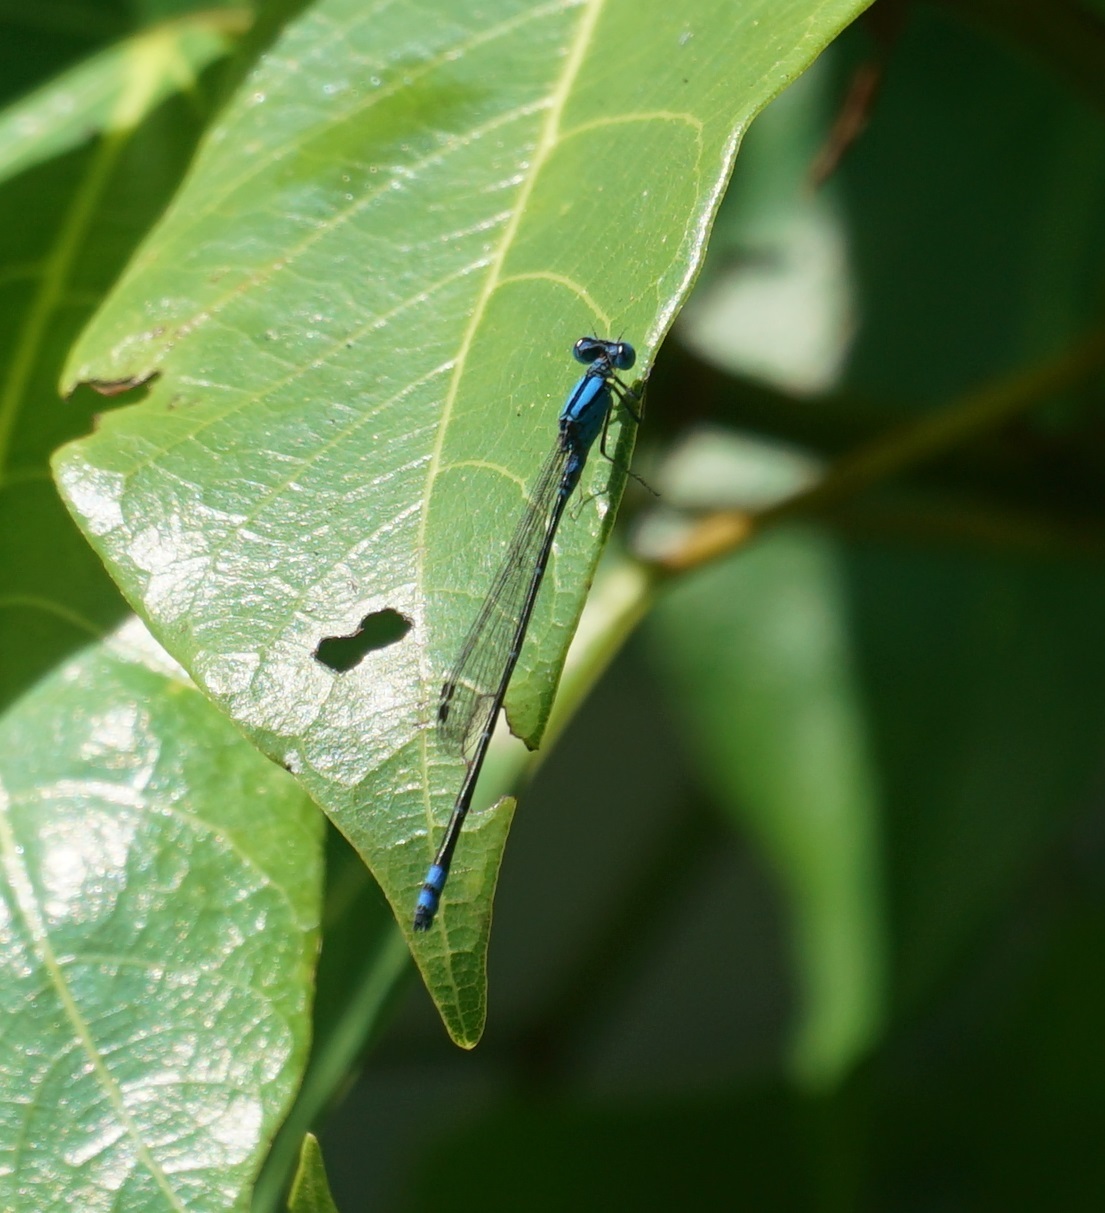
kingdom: Animalia
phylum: Arthropoda
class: Insecta
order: Odonata
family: Coenagrionidae
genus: Pseudagrion
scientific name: Pseudagrion microcephalum
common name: Blue riverdamsel
